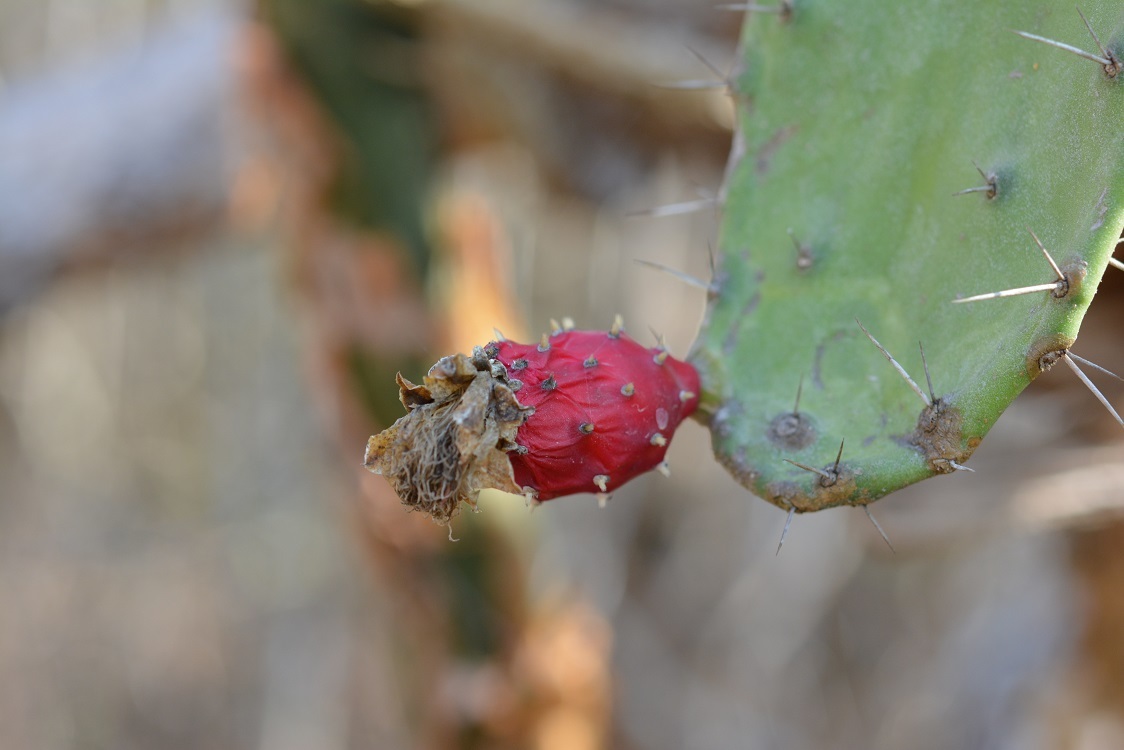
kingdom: Plantae
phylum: Tracheophyta
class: Magnoliopsida
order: Caryophyllales
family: Cactaceae
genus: Opuntia
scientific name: Opuntia dejecta
